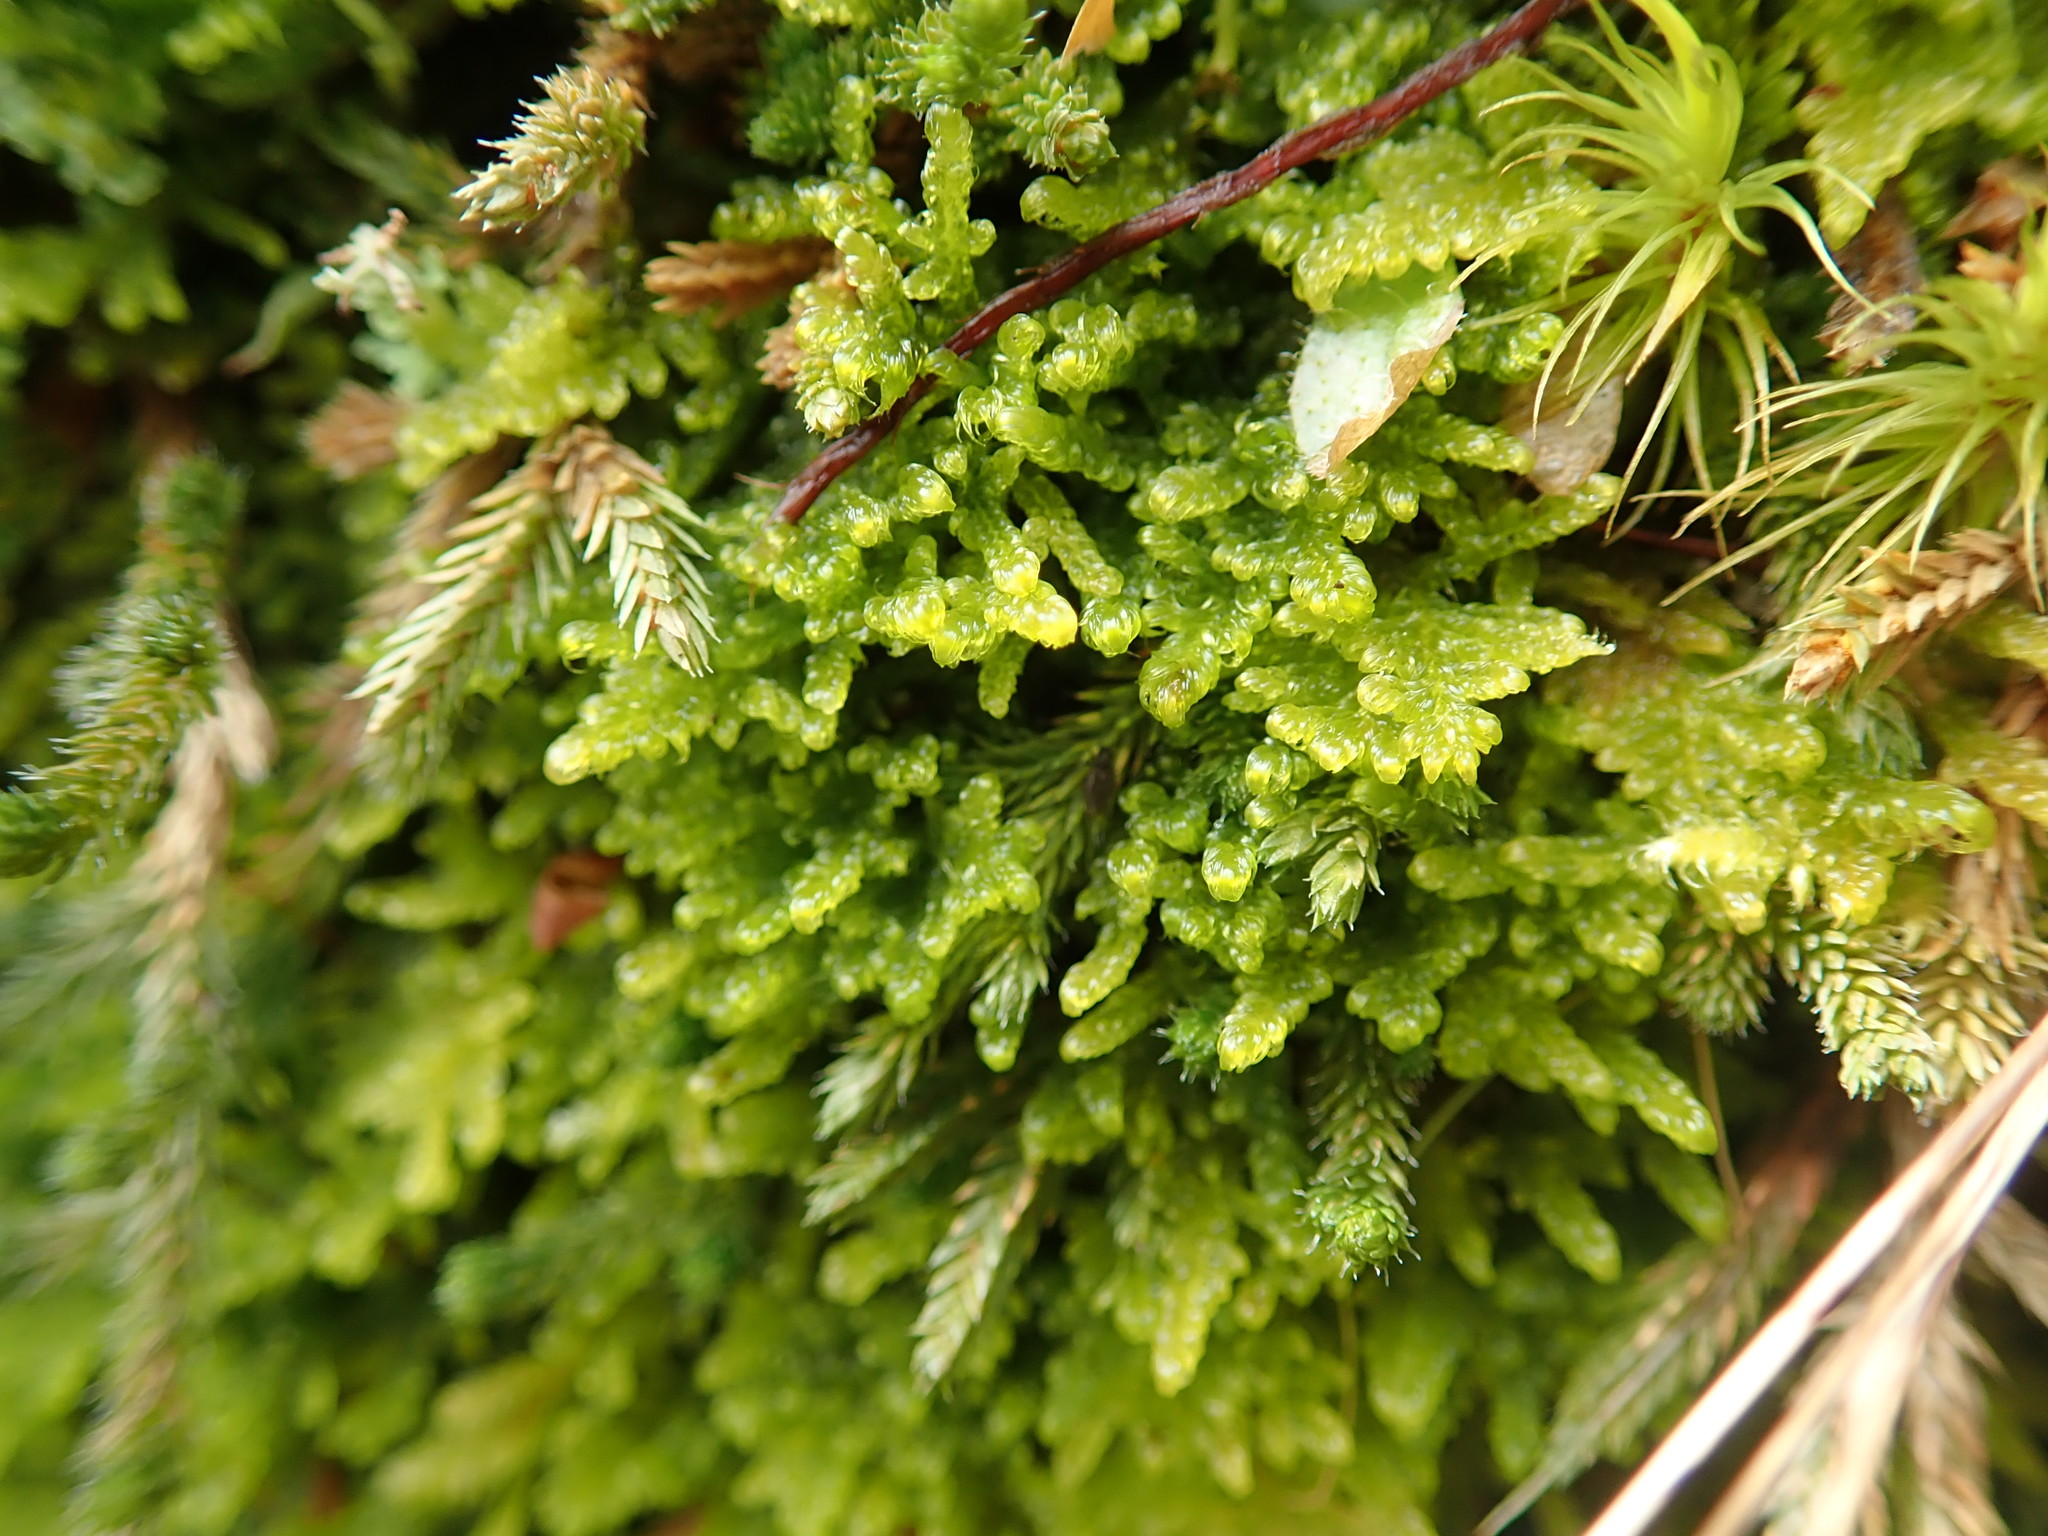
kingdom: Plantae
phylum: Bryophyta
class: Bryopsida
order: Hypnales
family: Stereodontaceae
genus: Stereodon
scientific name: Stereodon subimponens
